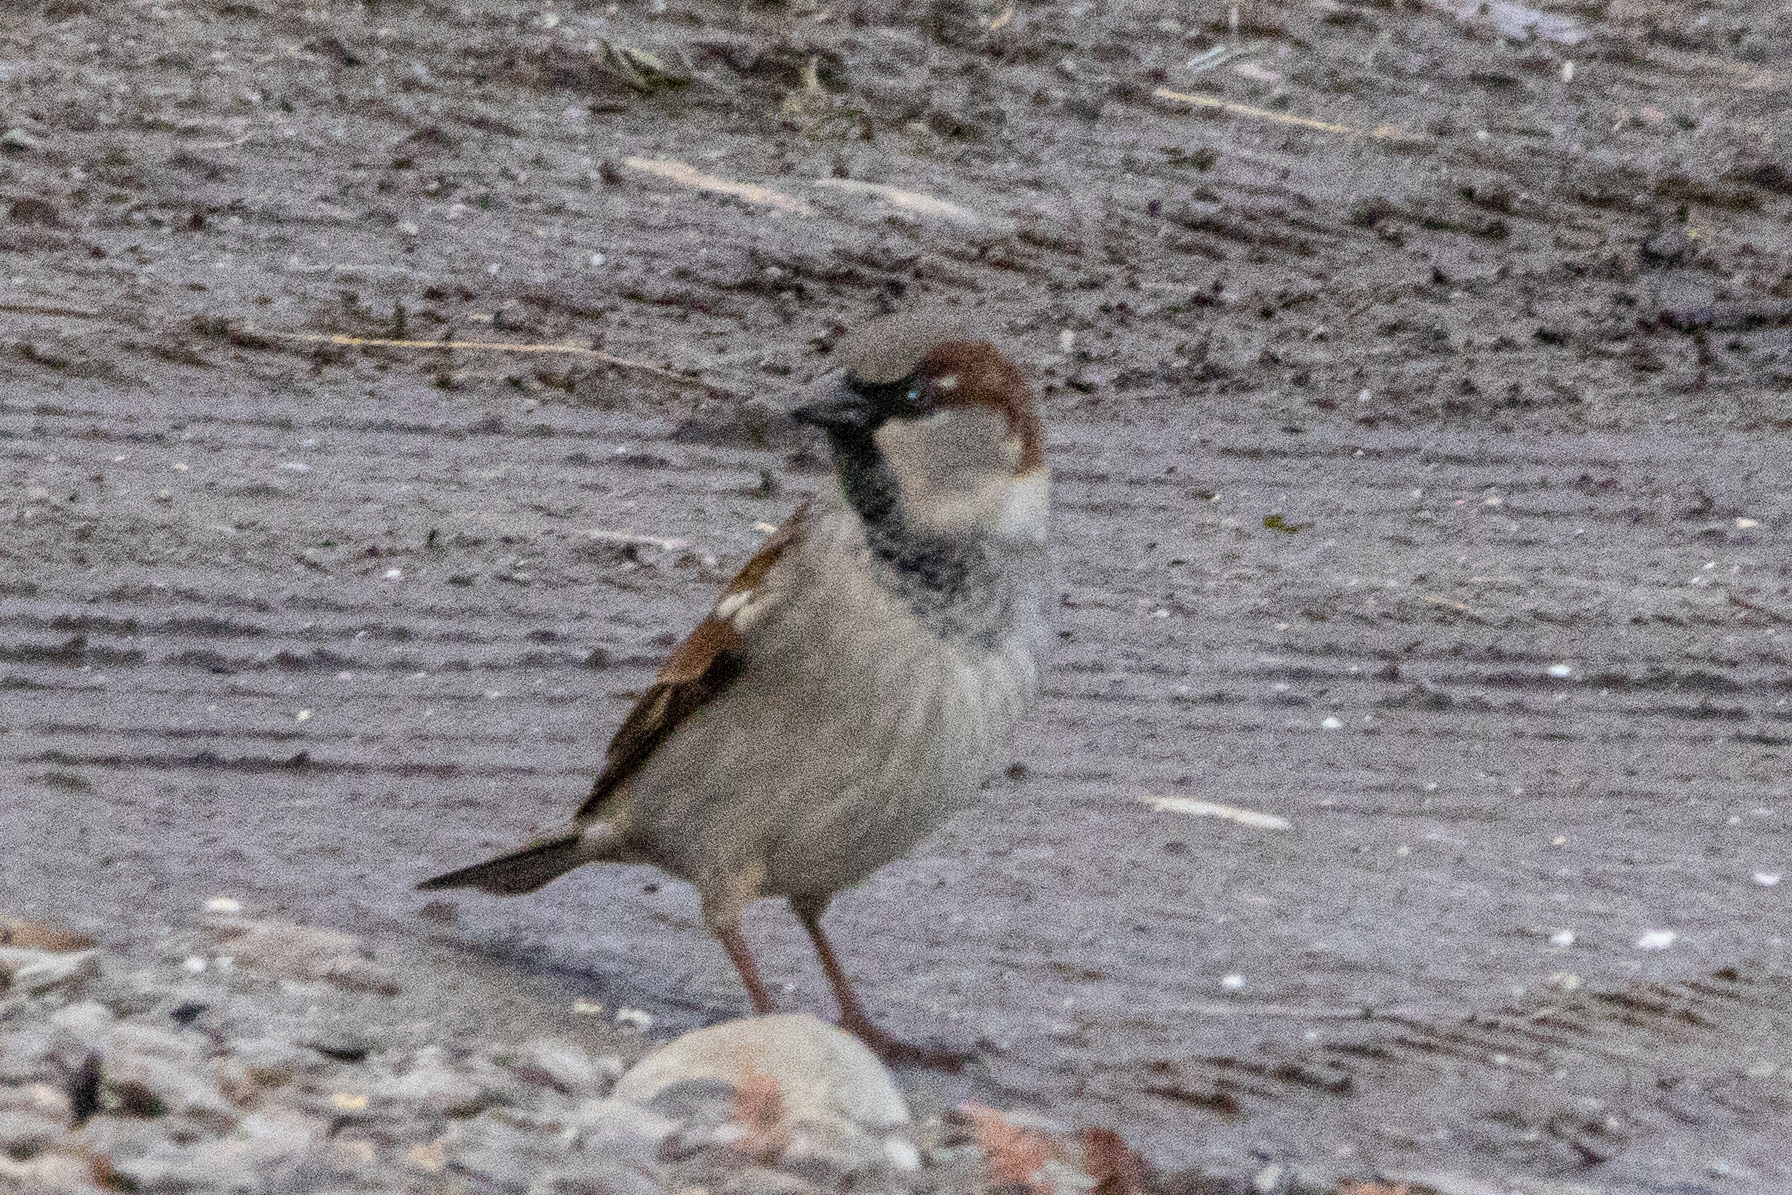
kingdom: Animalia
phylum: Chordata
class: Aves
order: Passeriformes
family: Passeridae
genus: Passer
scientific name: Passer domesticus
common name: House sparrow
